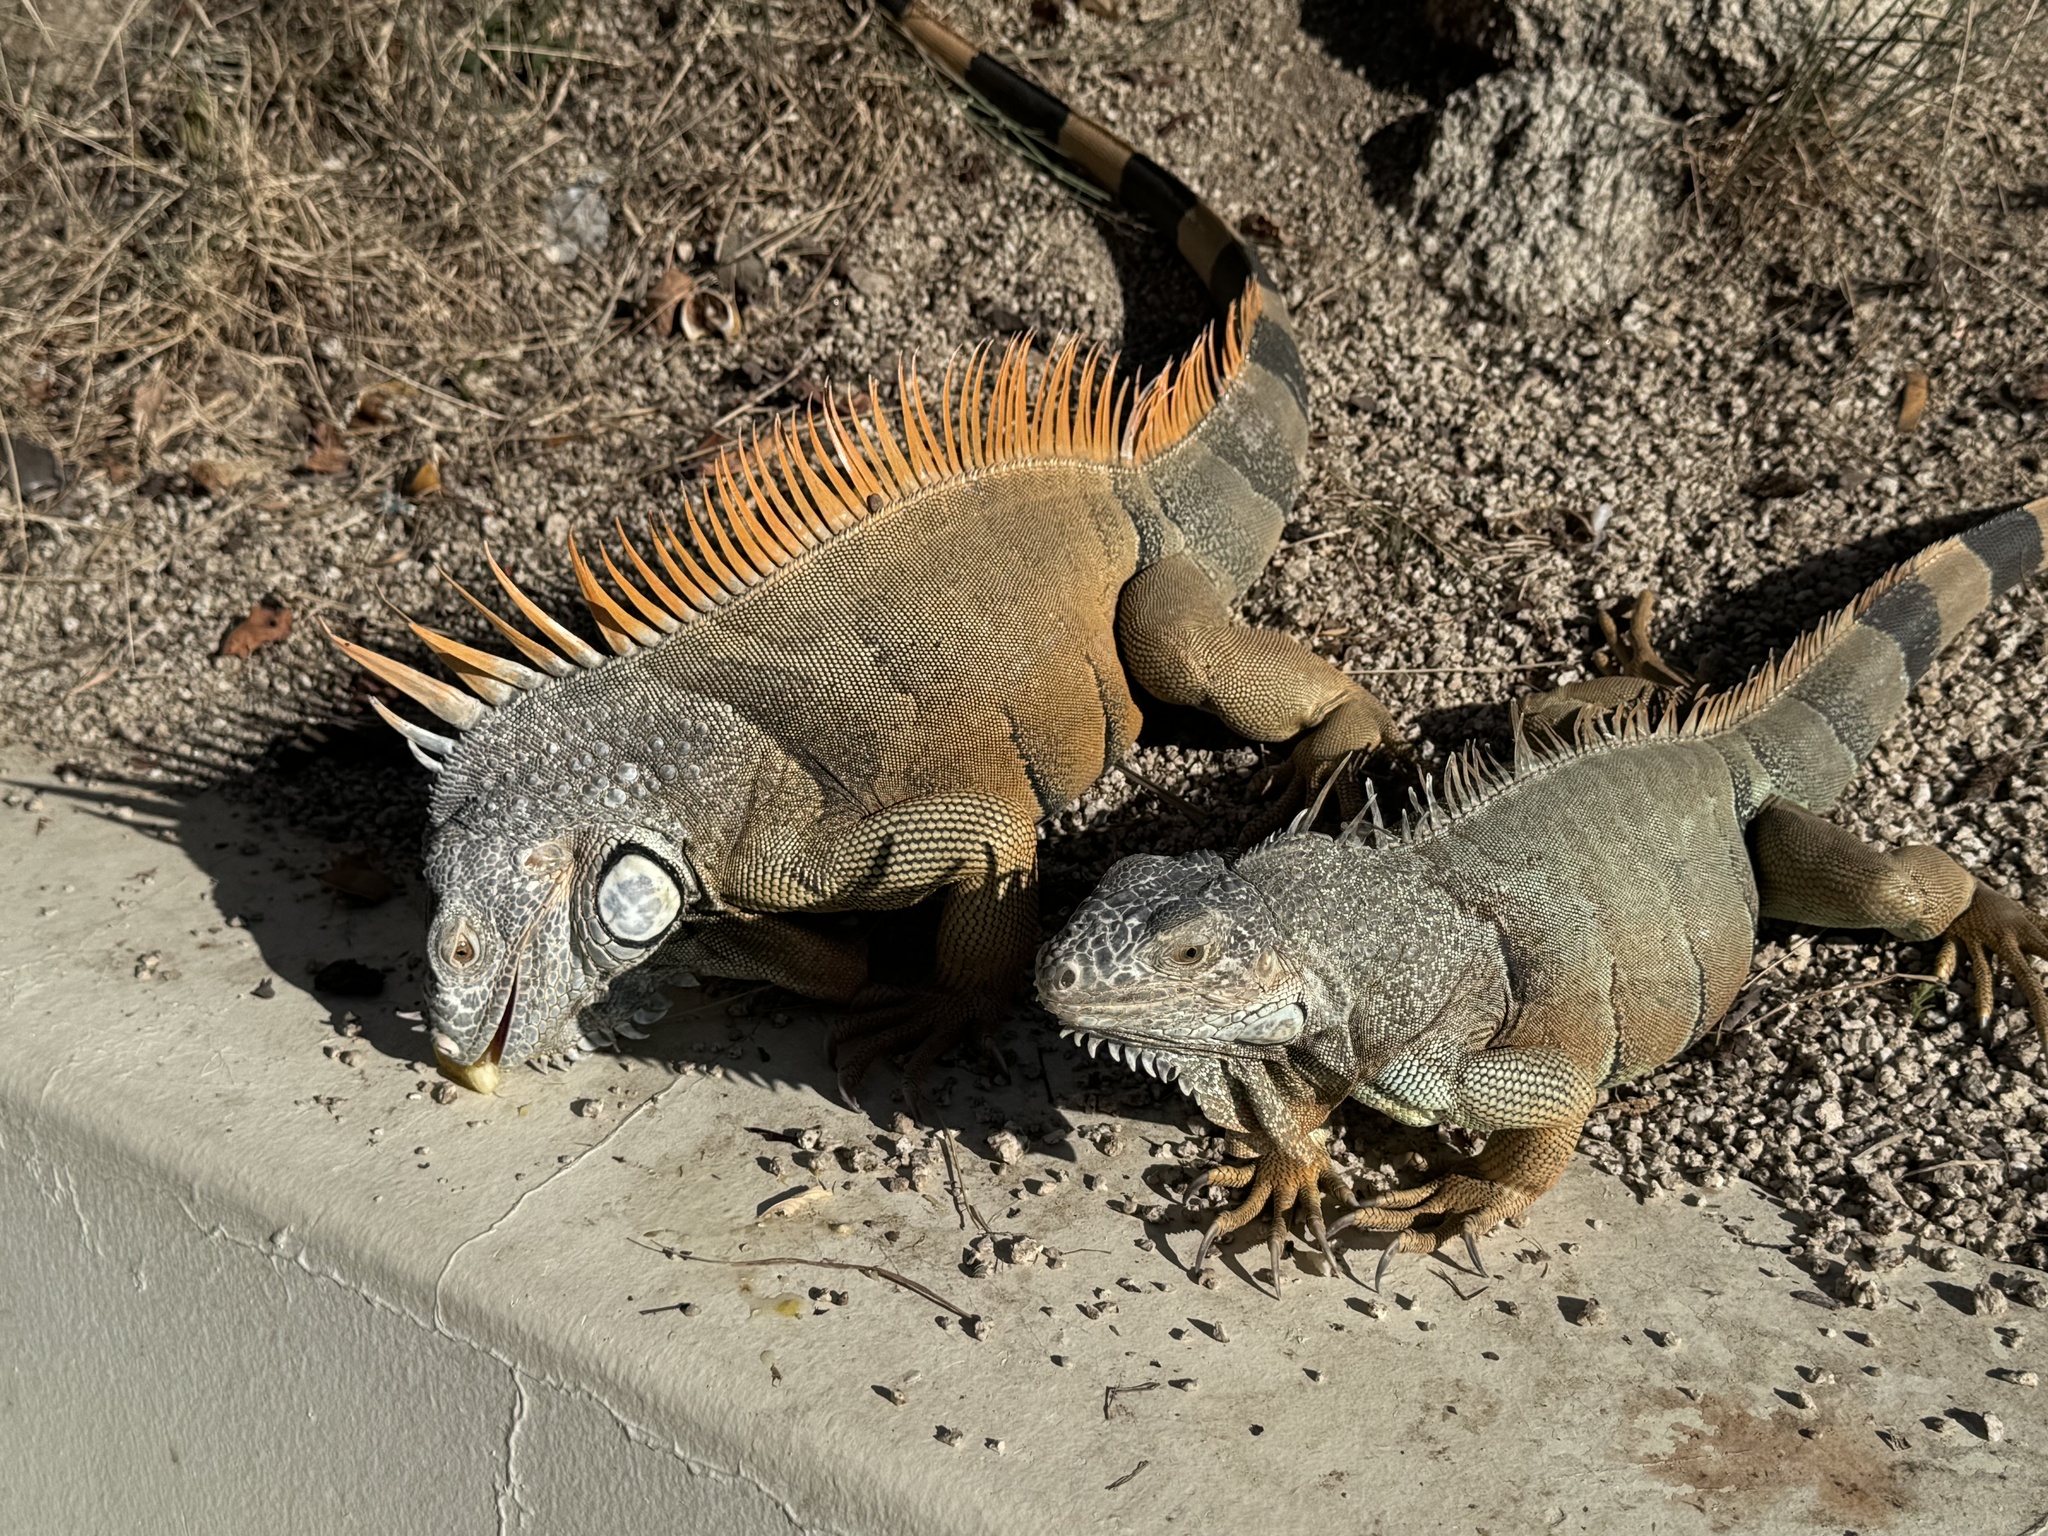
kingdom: Animalia
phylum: Chordata
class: Squamata
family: Iguanidae
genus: Iguana
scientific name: Iguana iguana
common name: Green iguana
